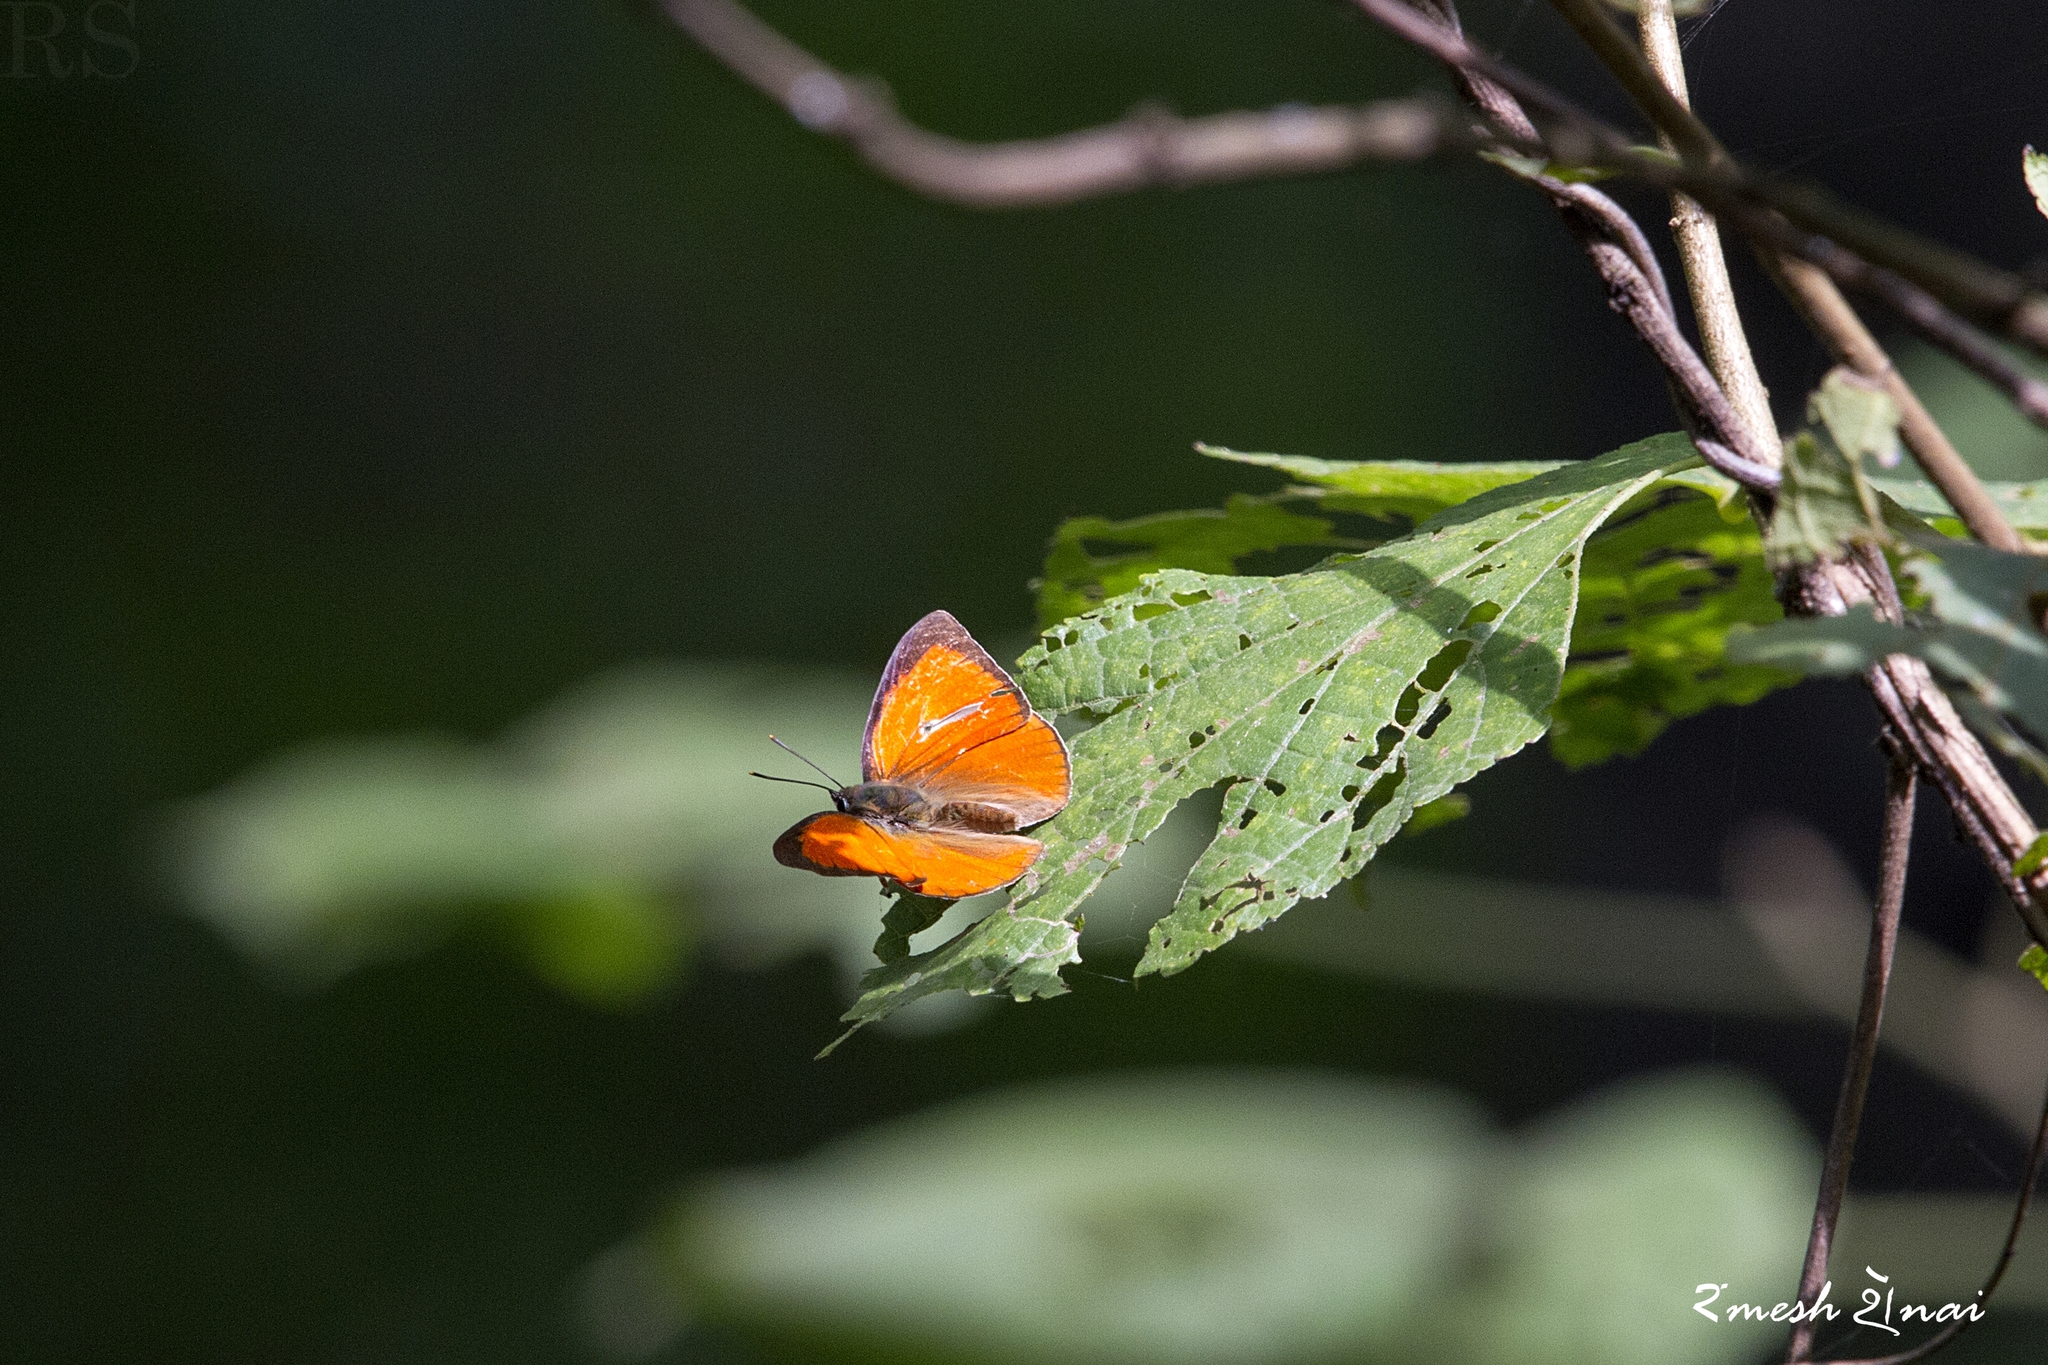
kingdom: Animalia
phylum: Arthropoda
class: Insecta
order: Lepidoptera
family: Lycaenidae
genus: Curetis
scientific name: Curetis thetis
